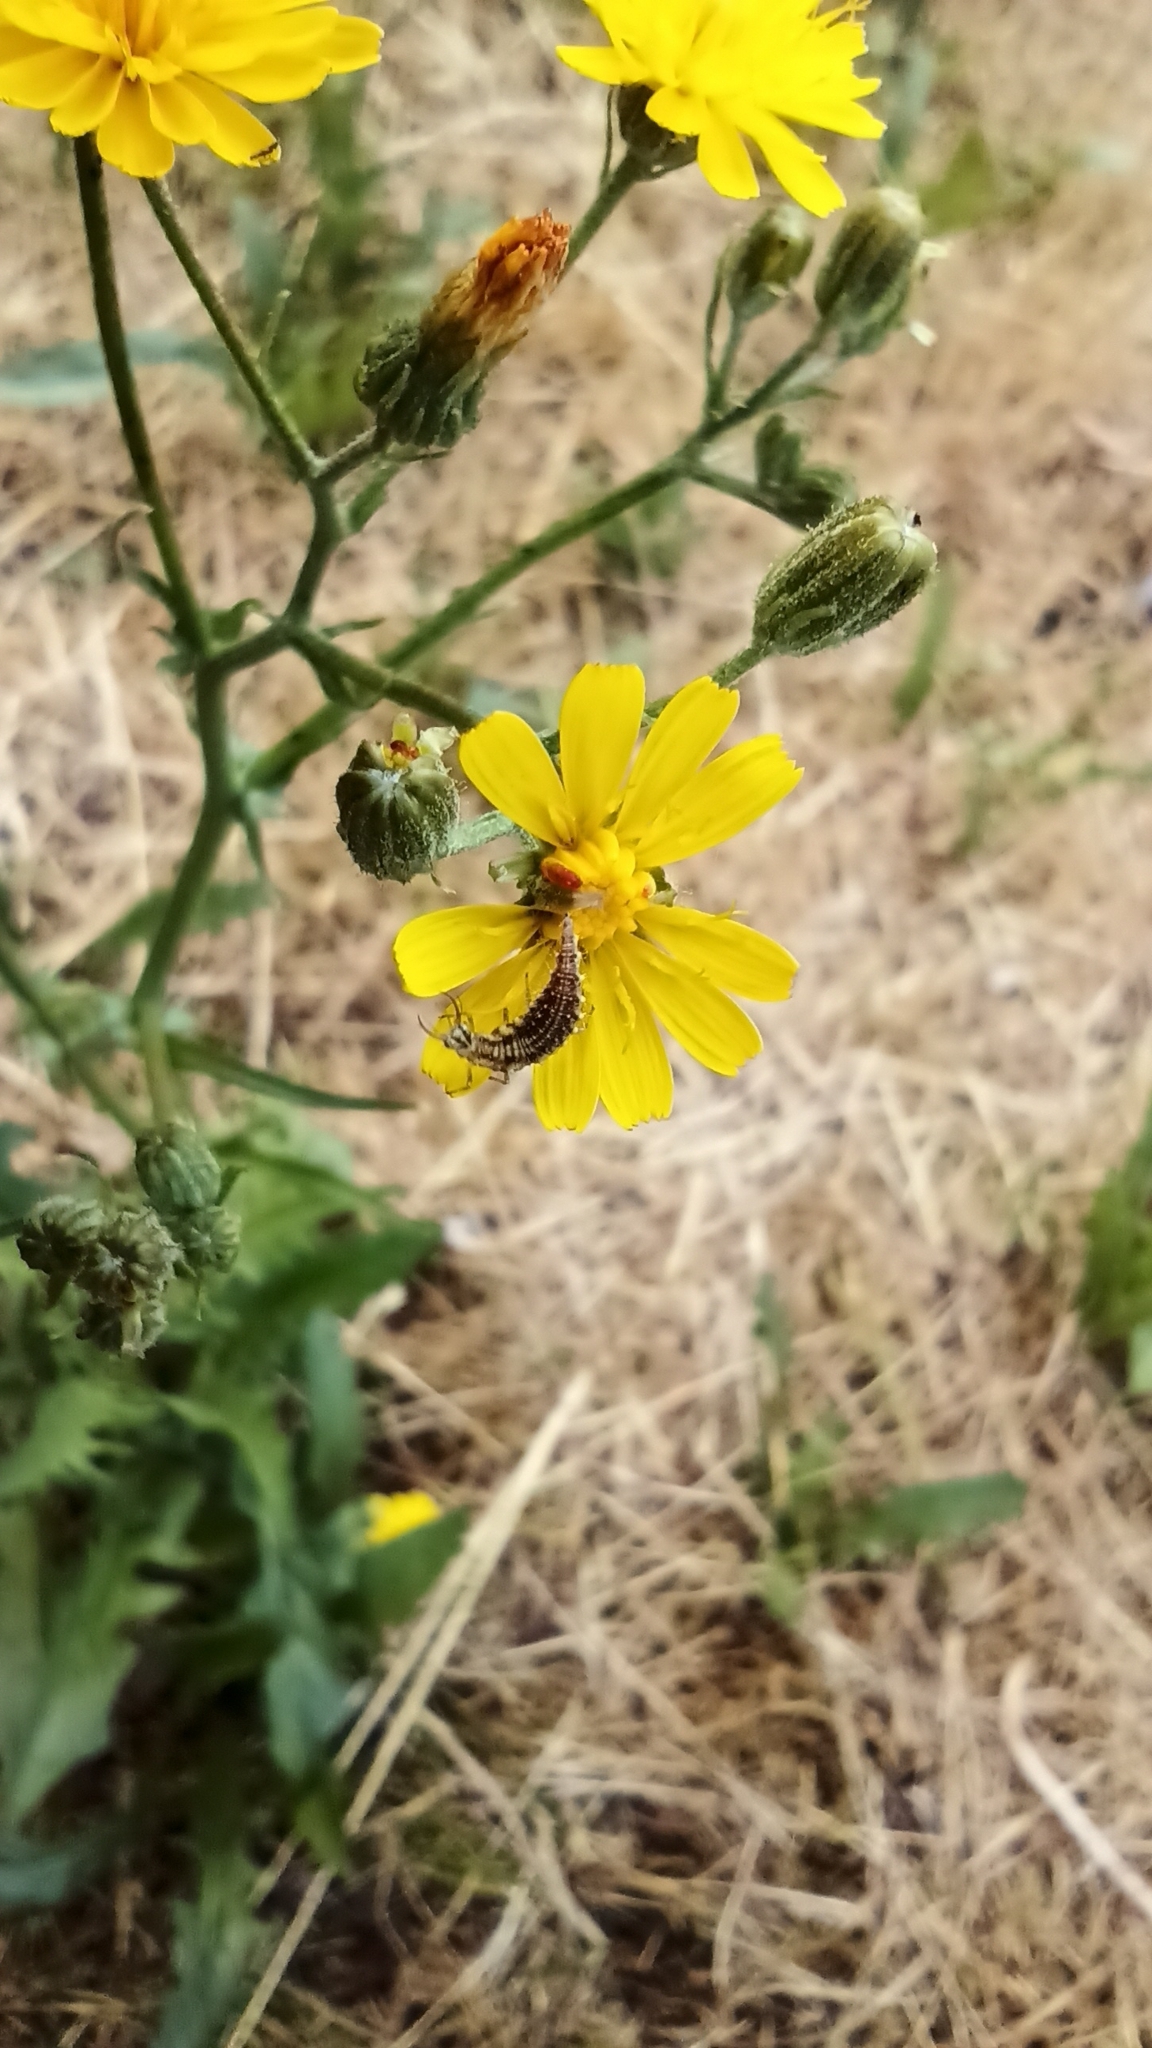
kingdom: Animalia
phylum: Arthropoda
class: Insecta
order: Neuroptera
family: Chrysopidae
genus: Chrysoperla
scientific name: Chrysoperla
